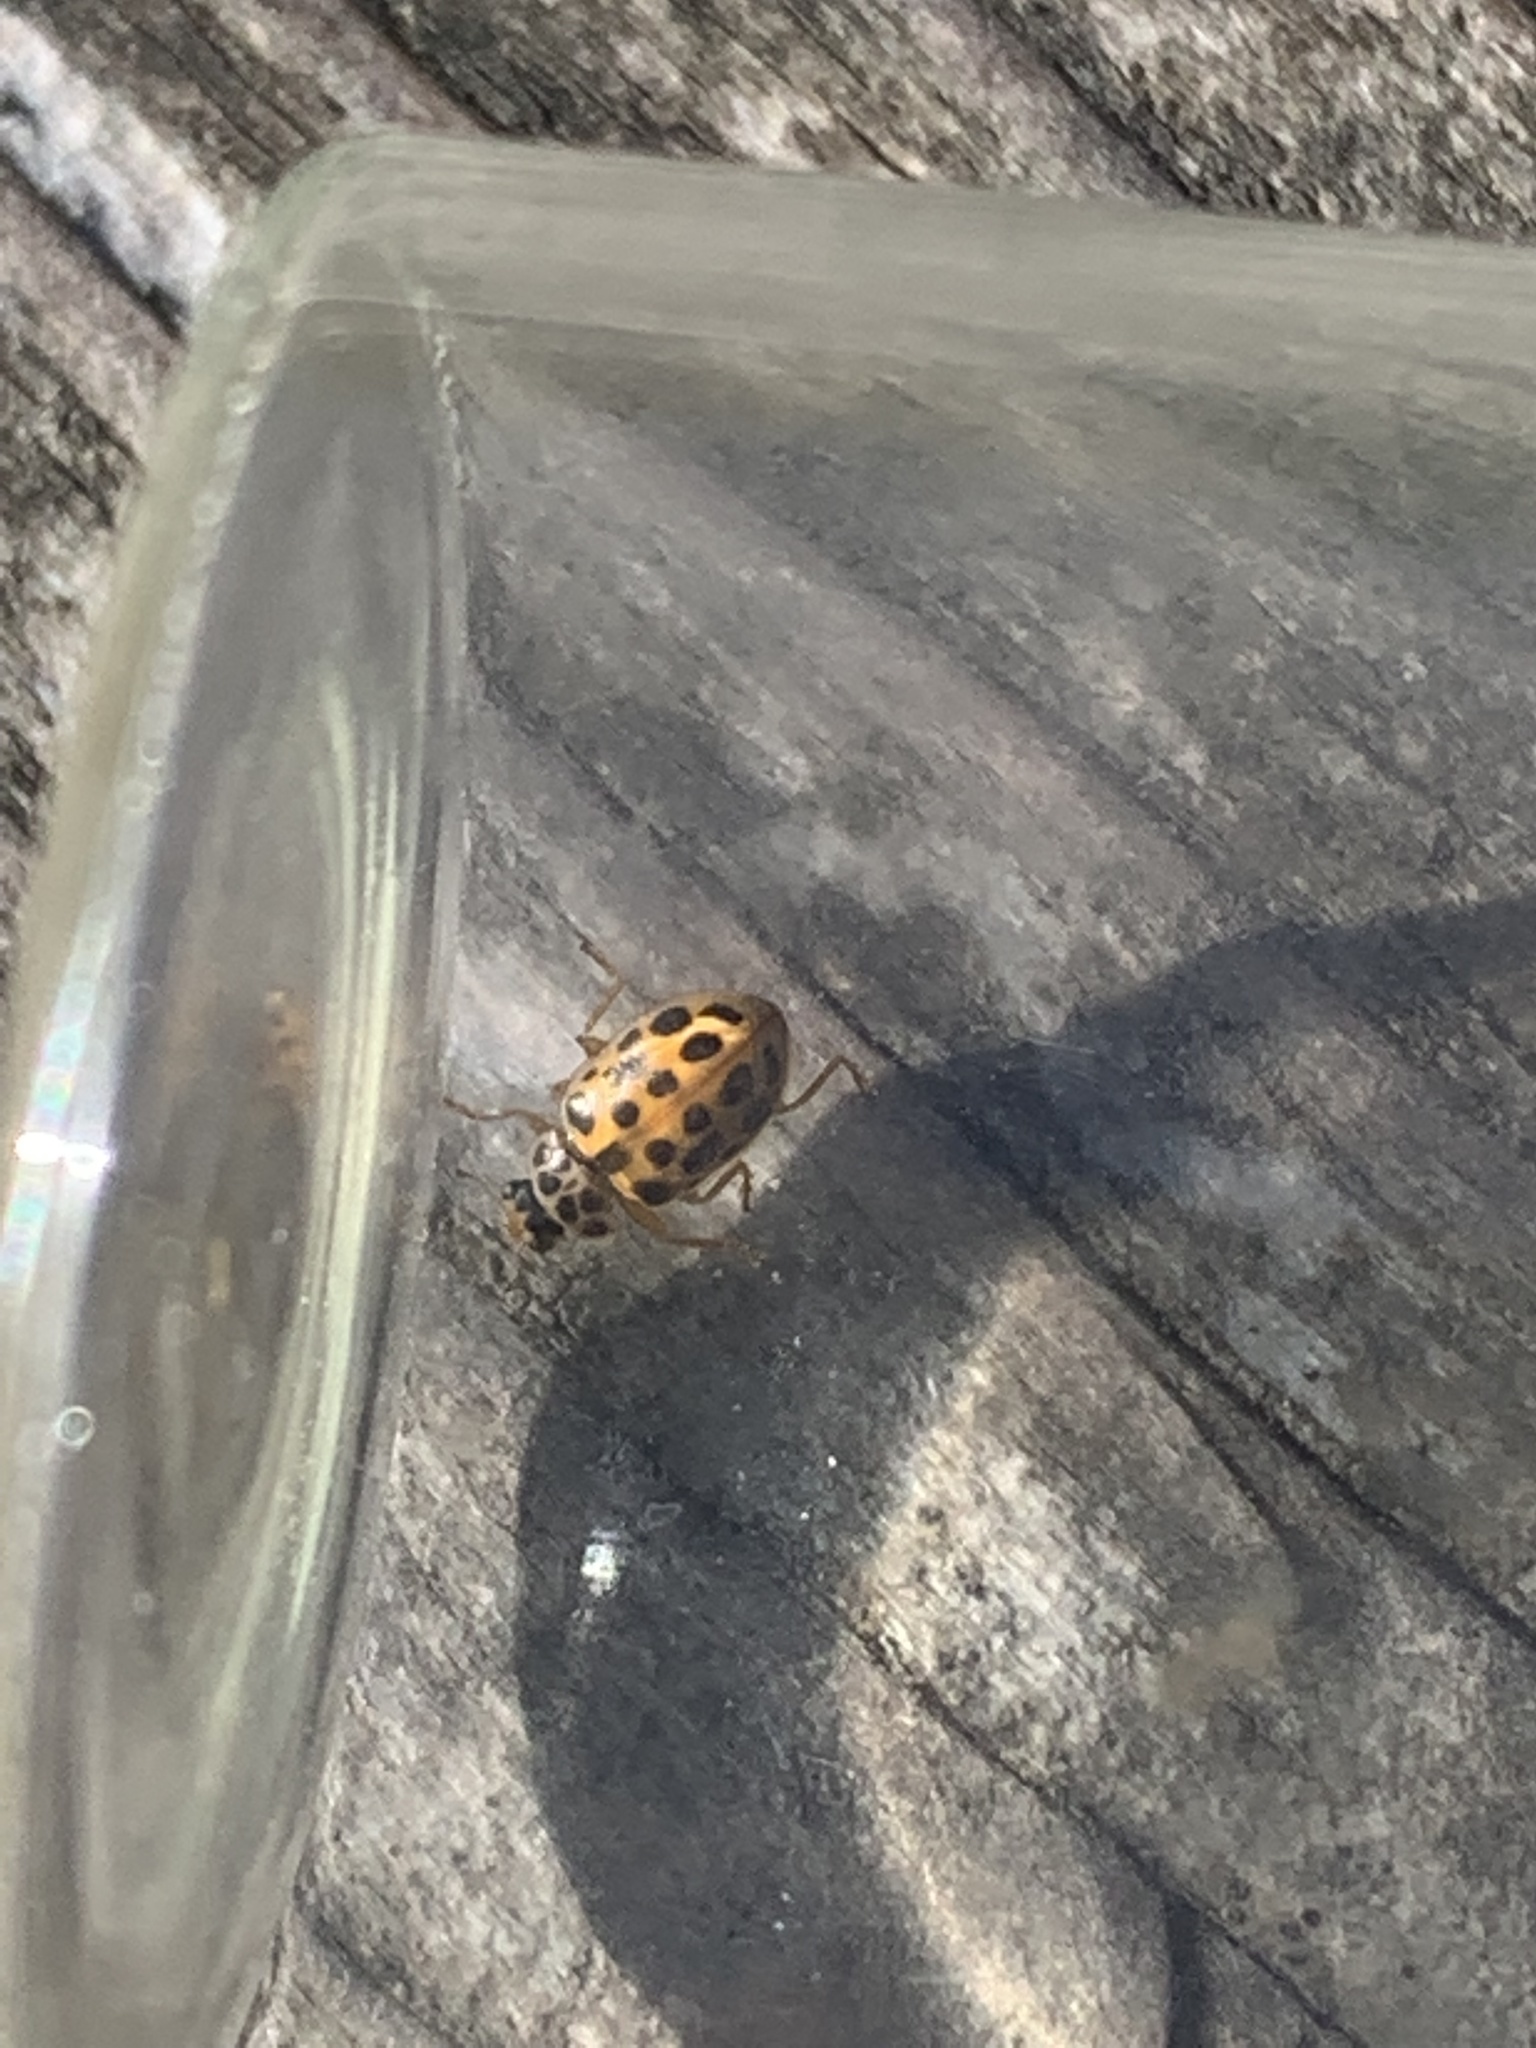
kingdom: Animalia
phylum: Arthropoda
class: Insecta
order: Coleoptera
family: Coccinellidae
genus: Anisosticta
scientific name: Anisosticta novemdecimpunctata
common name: Water ladybird
